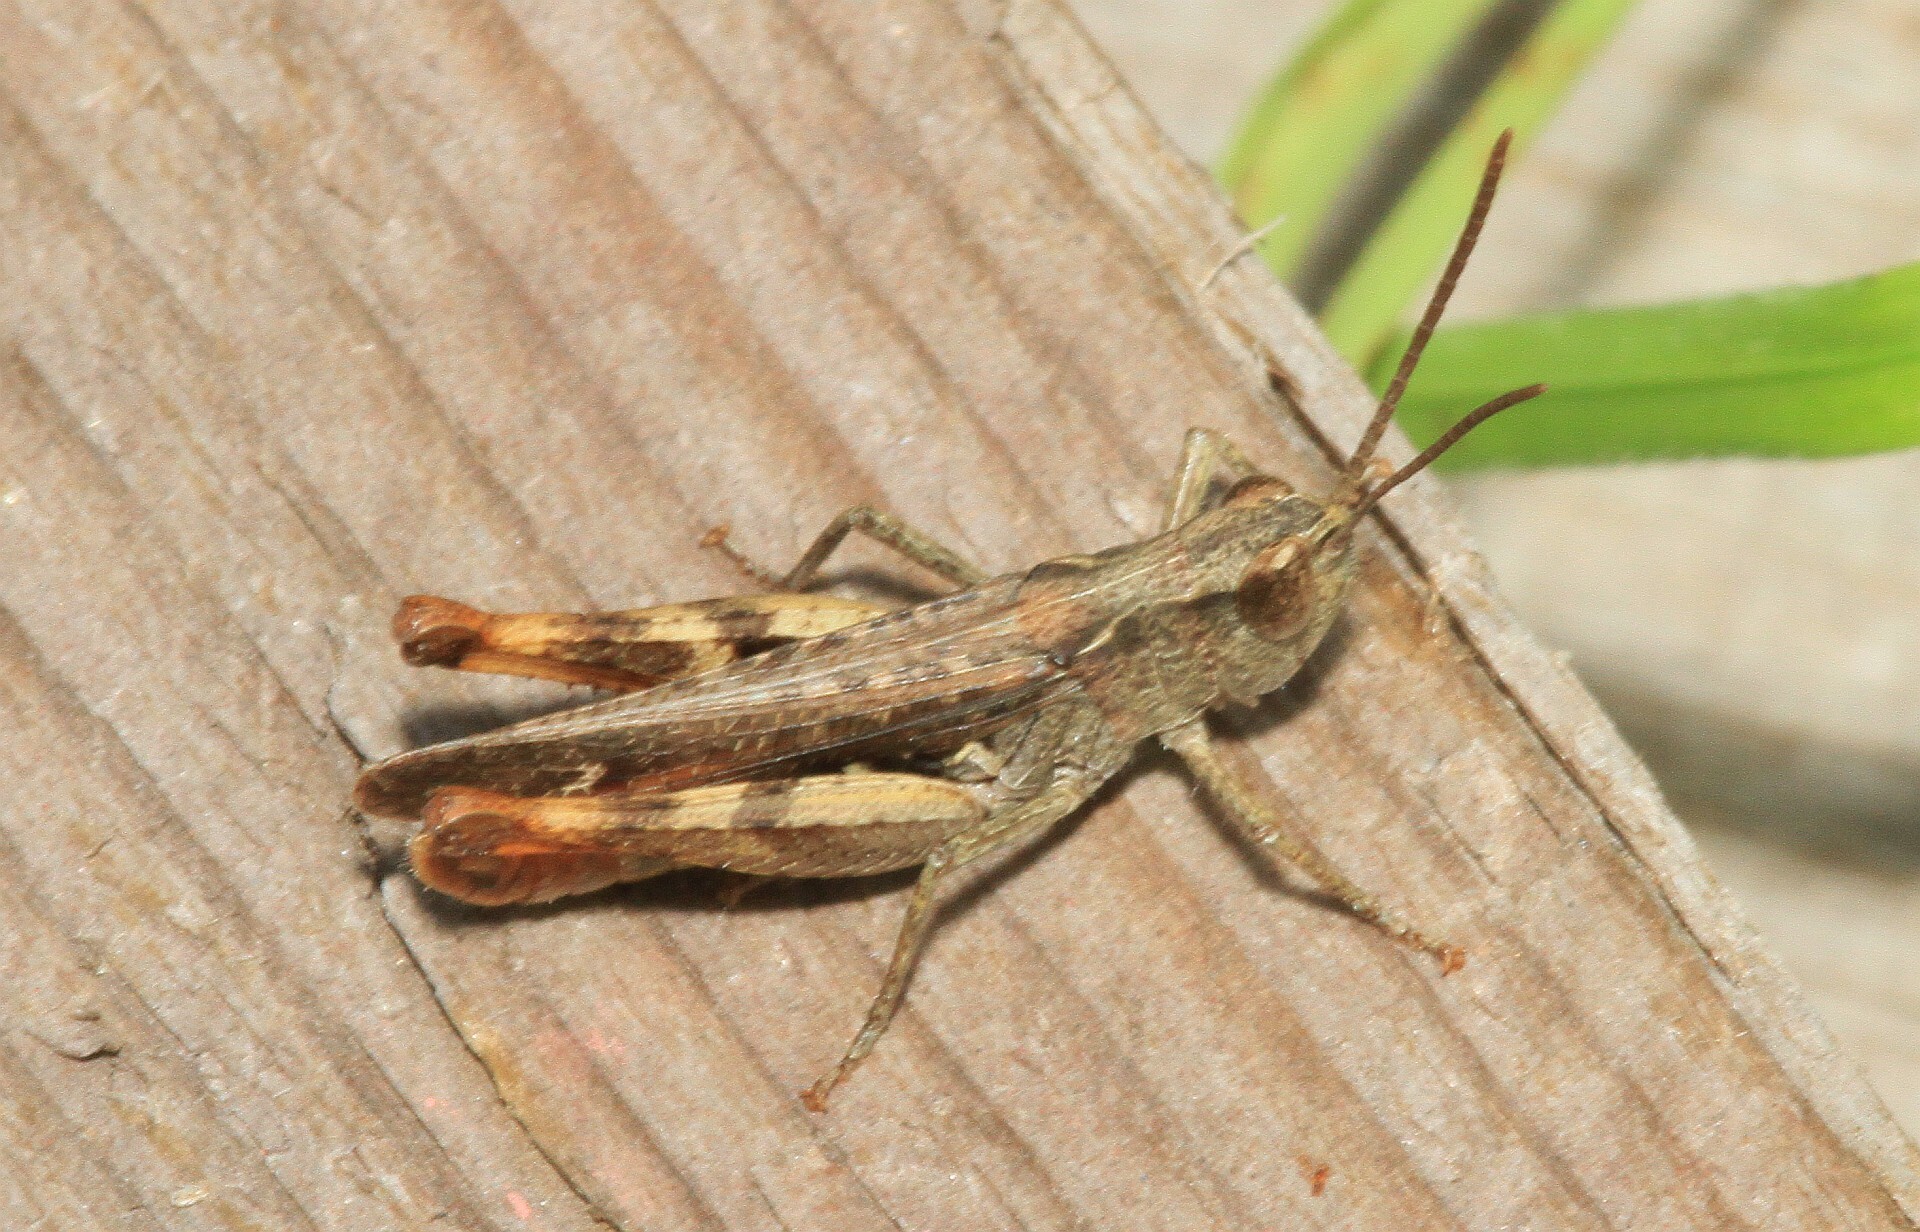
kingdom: Animalia
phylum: Arthropoda
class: Insecta
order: Orthoptera
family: Acrididae
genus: Chorthippus
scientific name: Chorthippus vagans
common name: Heath grasshopper
